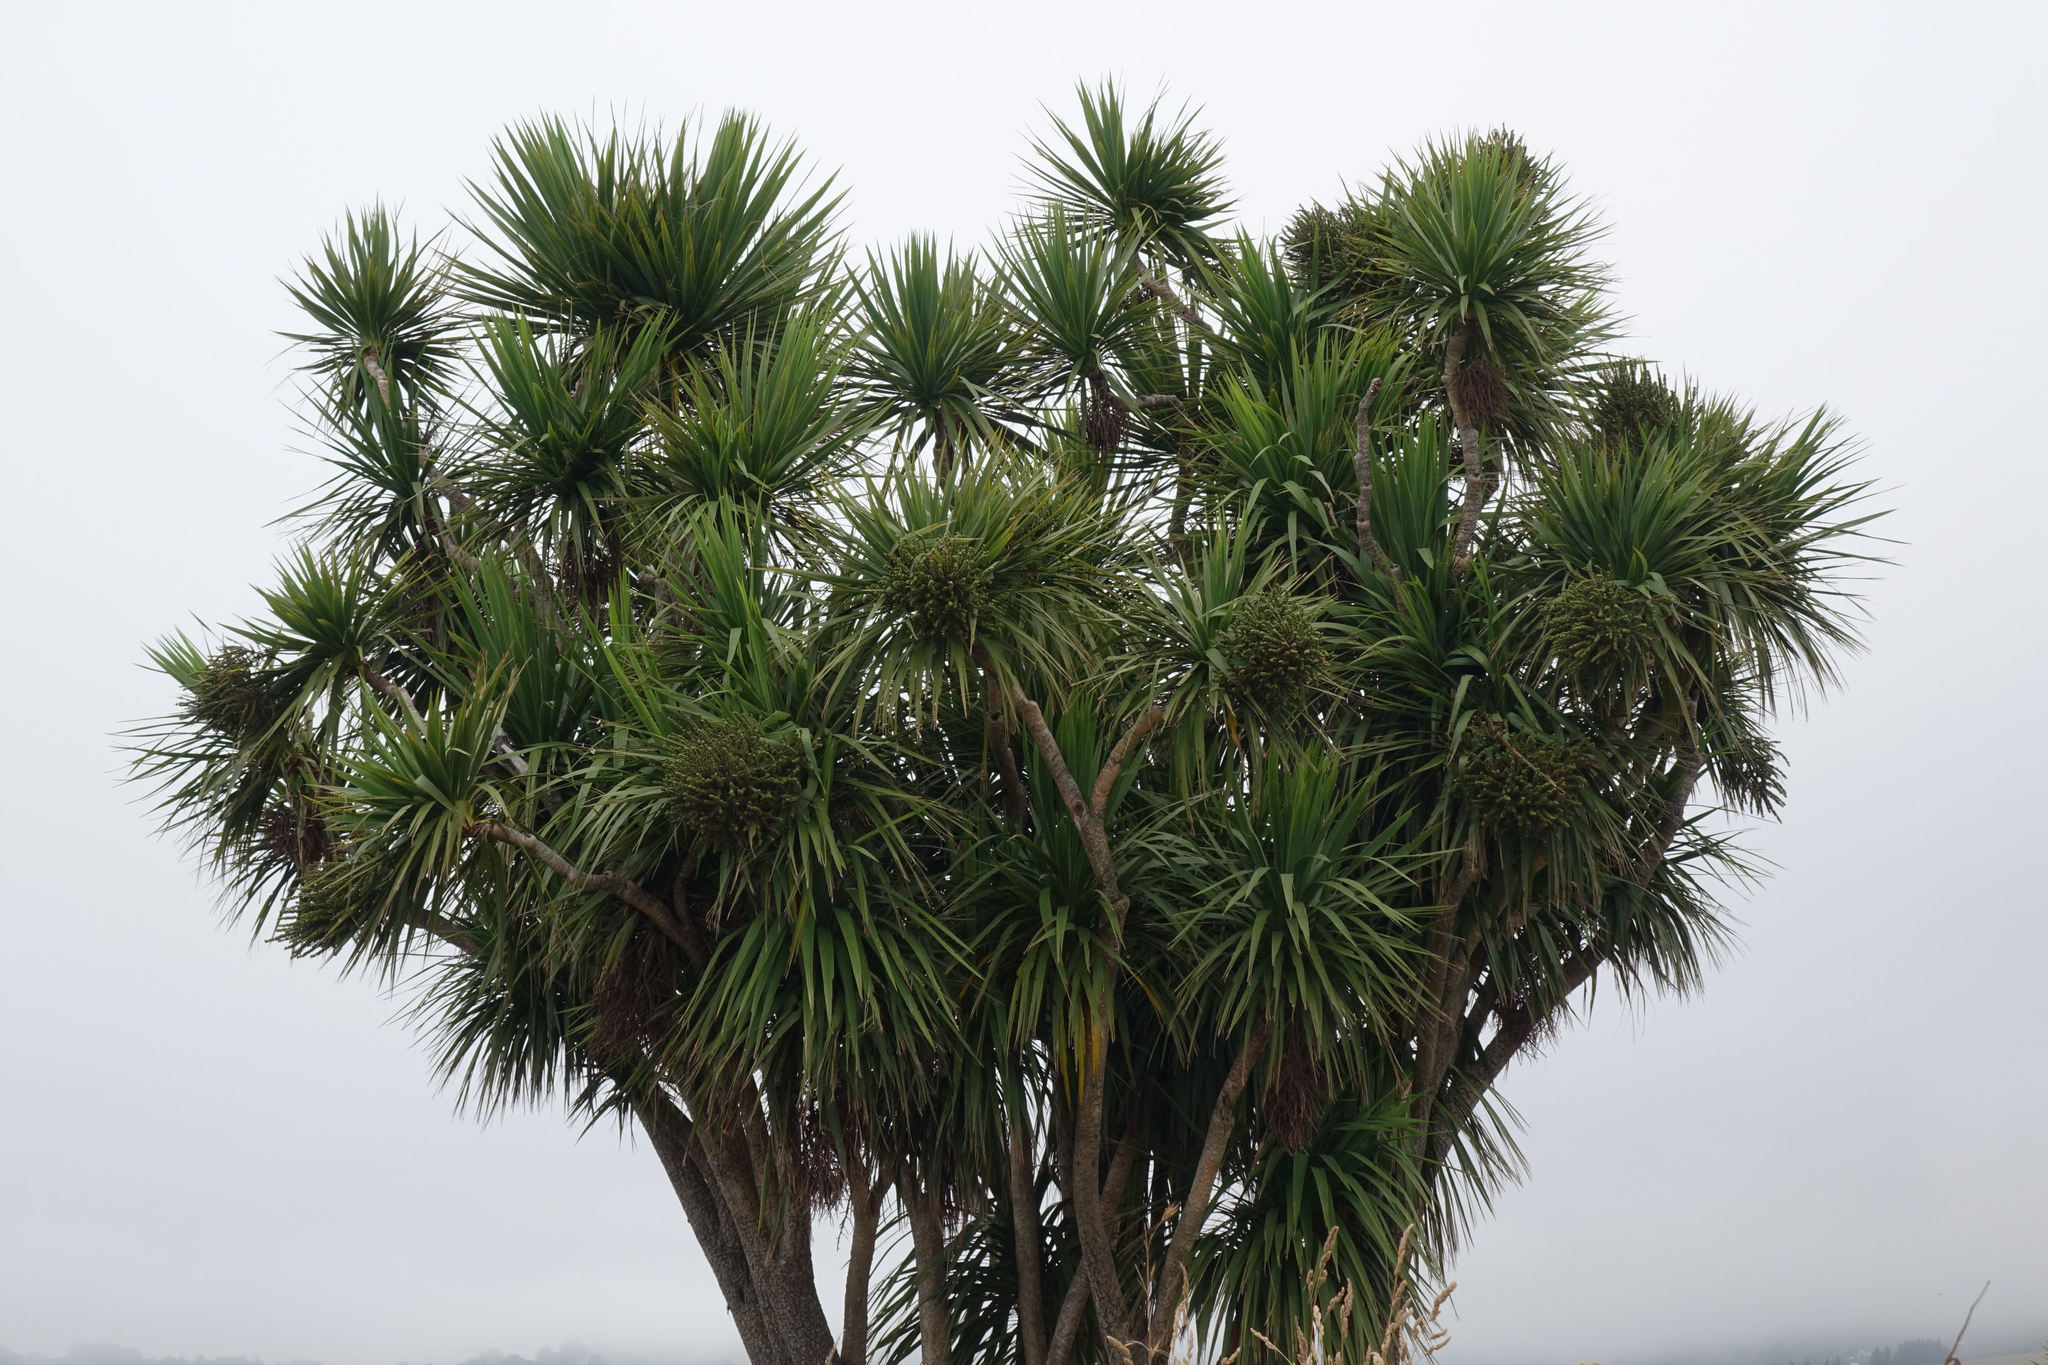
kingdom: Plantae
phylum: Tracheophyta
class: Liliopsida
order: Asparagales
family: Asparagaceae
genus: Cordyline
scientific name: Cordyline australis
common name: Cabbage-palm
